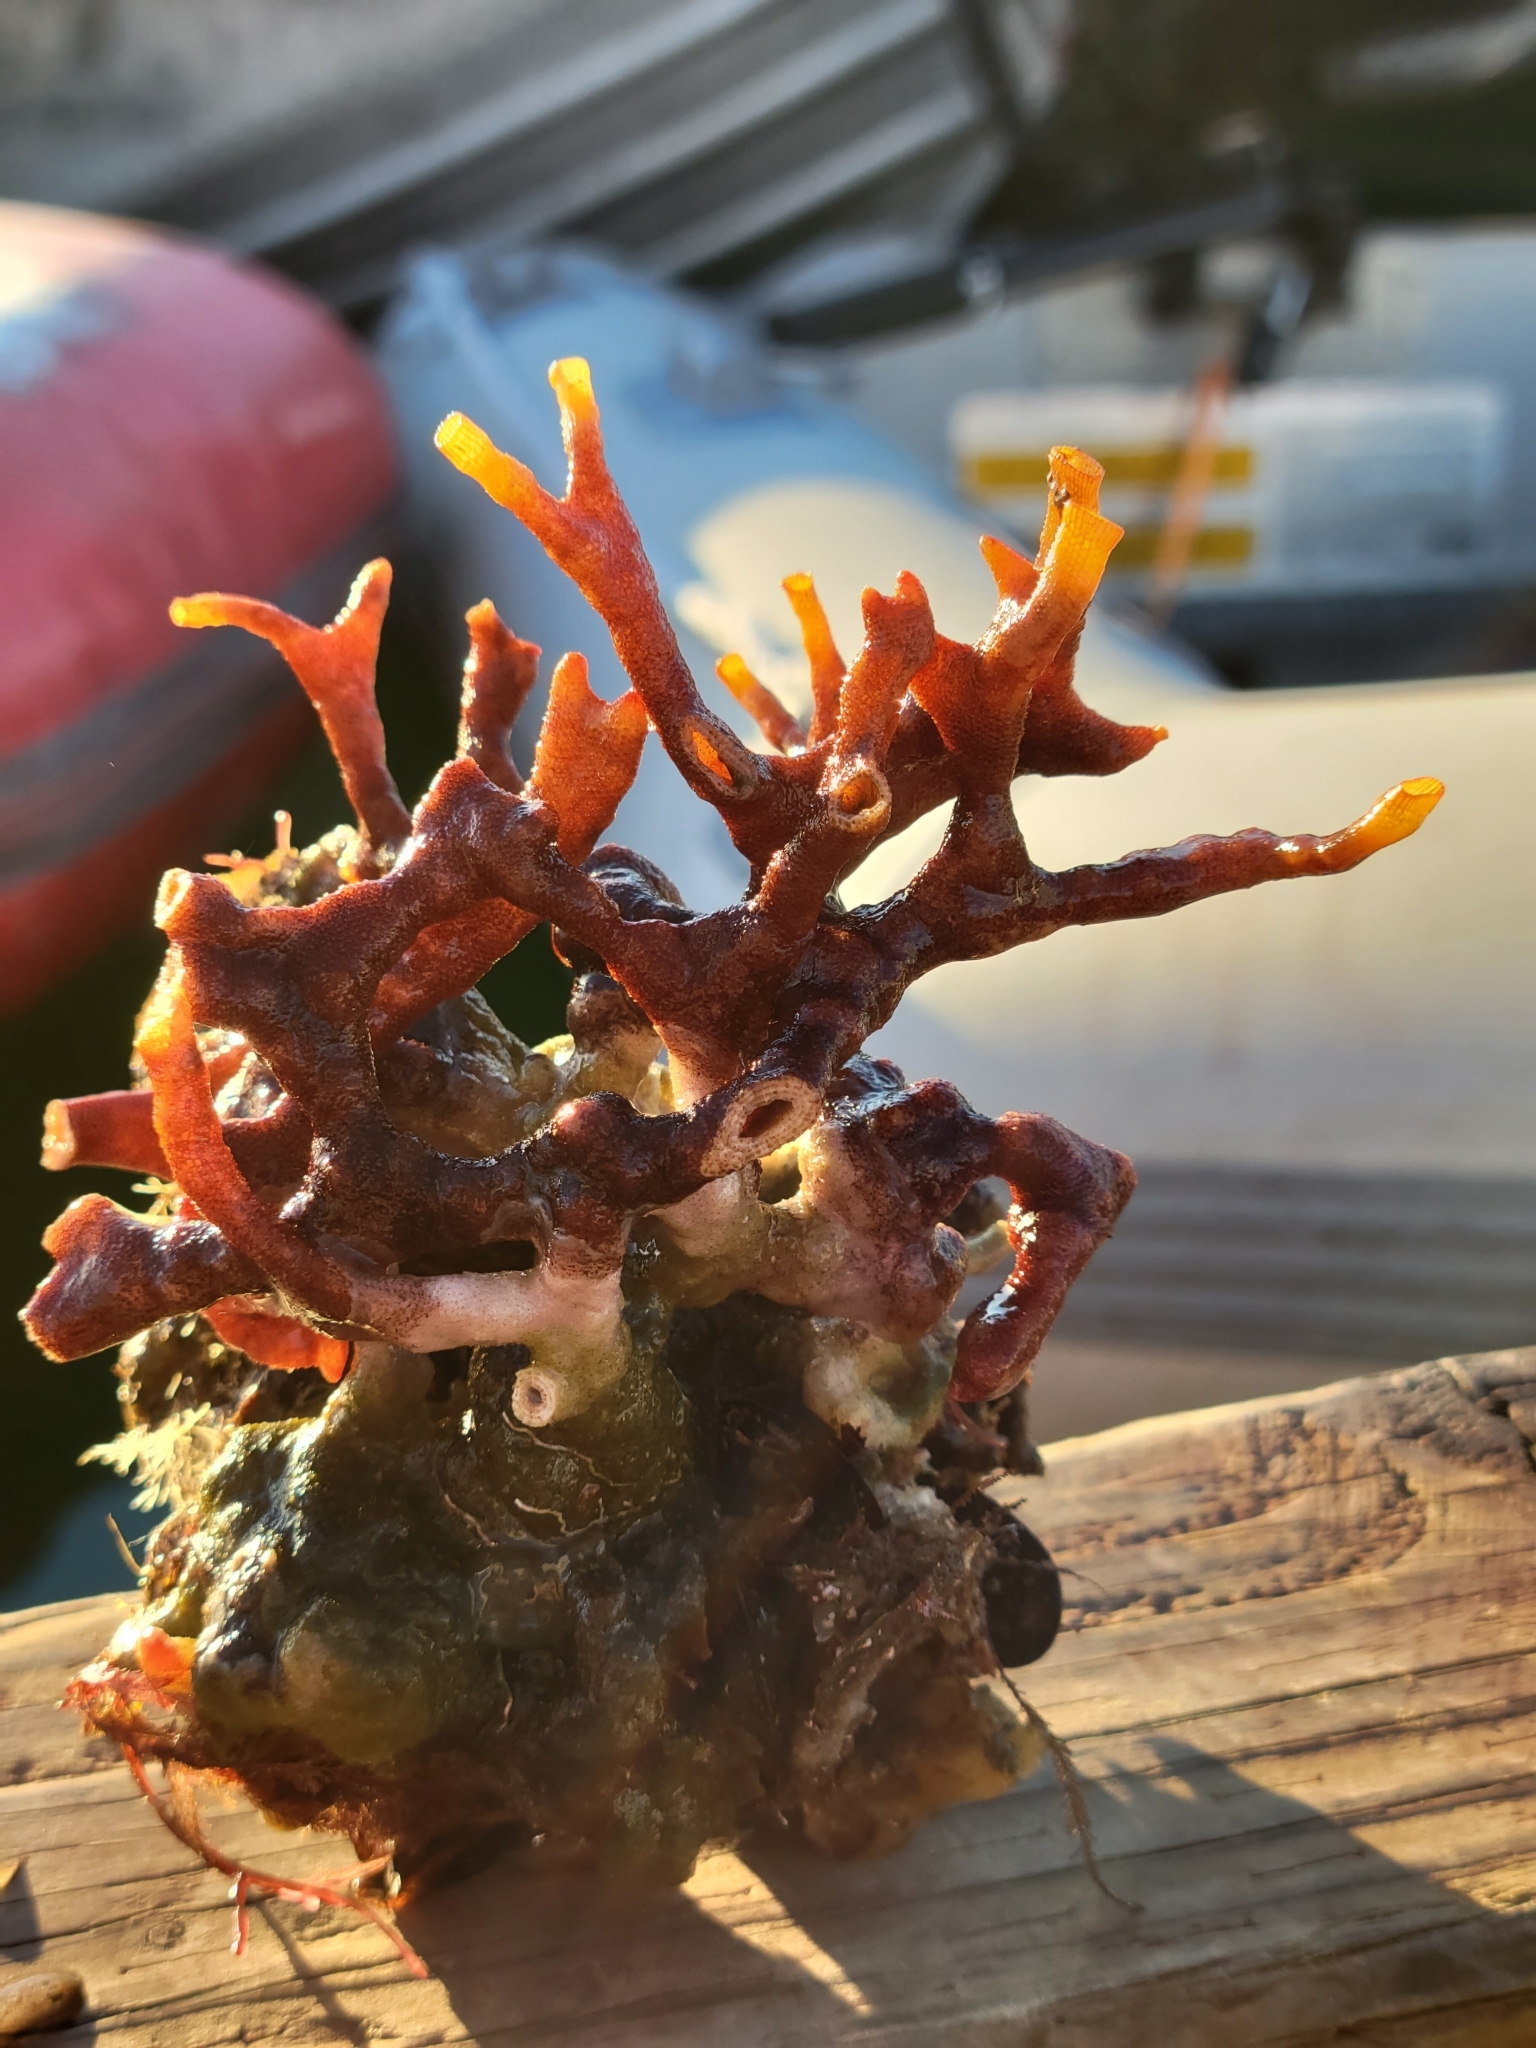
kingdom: Animalia
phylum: Bryozoa
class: Gymnolaemata
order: Cheilostomatida
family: Schizoporellidae
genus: Schizoporella
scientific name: Schizoporella errata
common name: Branching bryozoan
